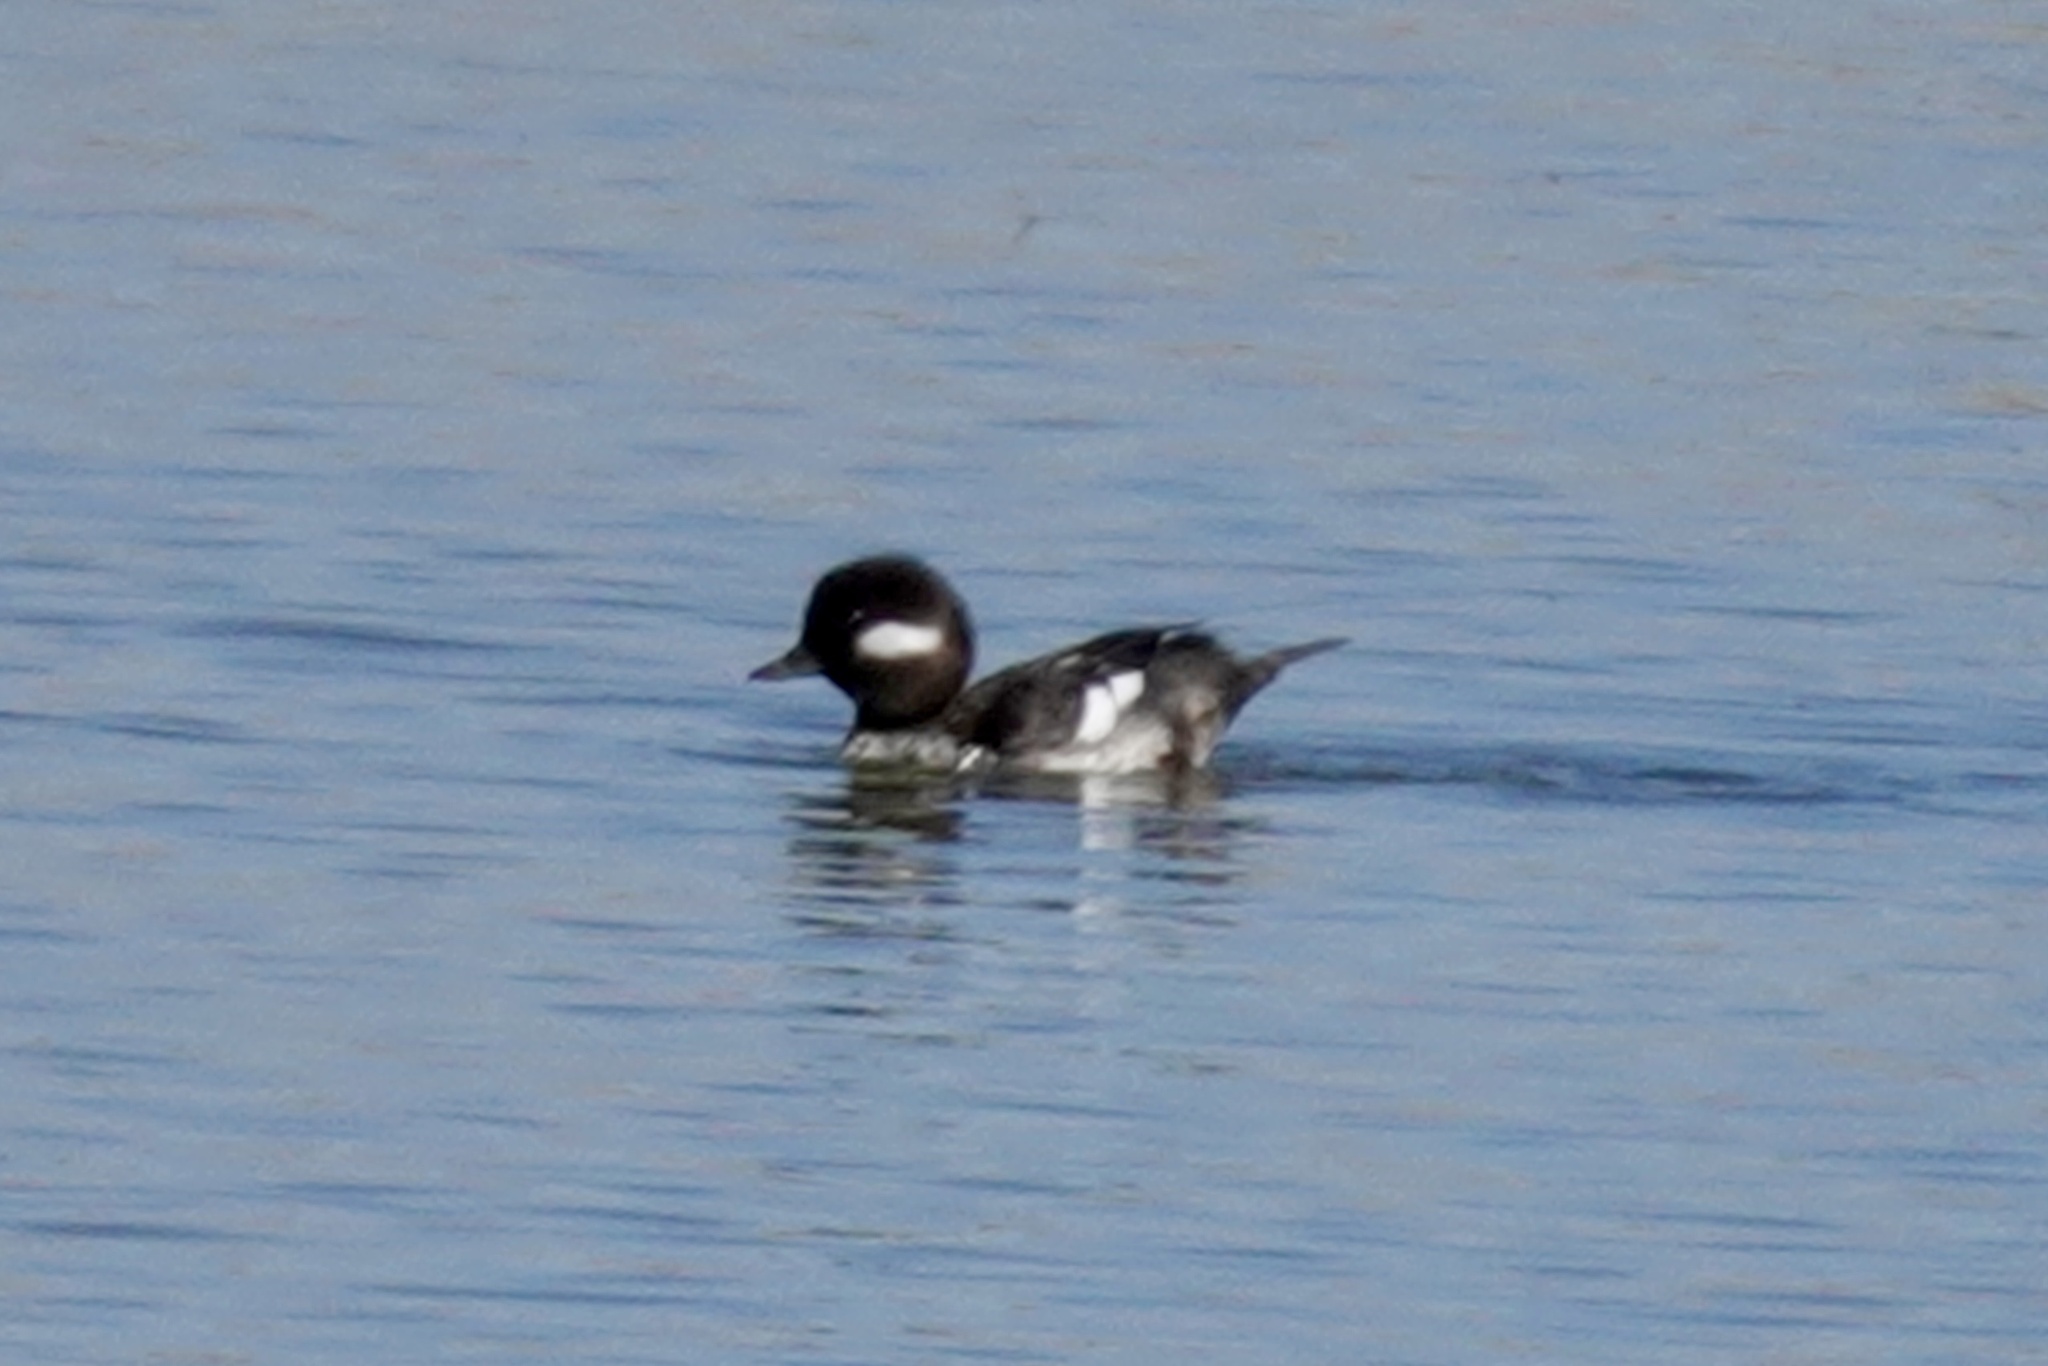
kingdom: Animalia
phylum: Chordata
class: Aves
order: Anseriformes
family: Anatidae
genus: Bucephala
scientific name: Bucephala albeola
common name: Bufflehead
